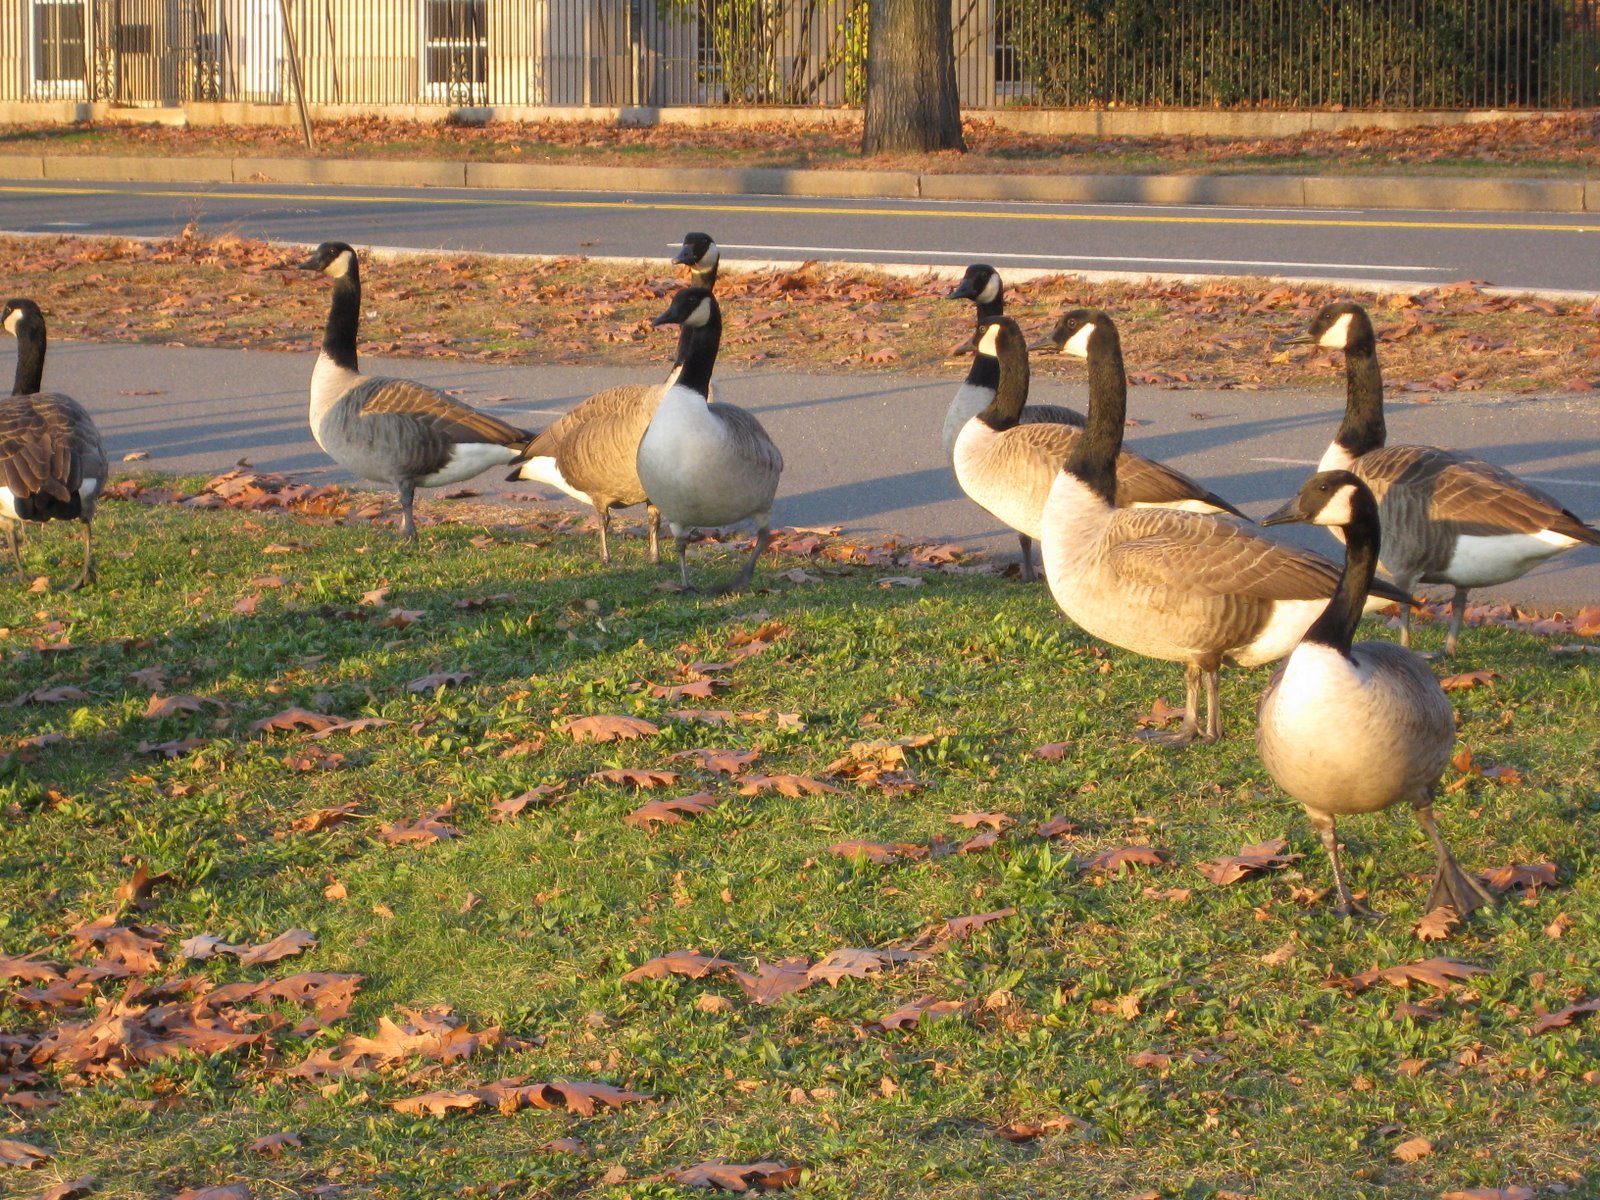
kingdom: Animalia
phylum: Chordata
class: Aves
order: Anseriformes
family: Anatidae
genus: Branta
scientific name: Branta canadensis
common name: Canada goose
